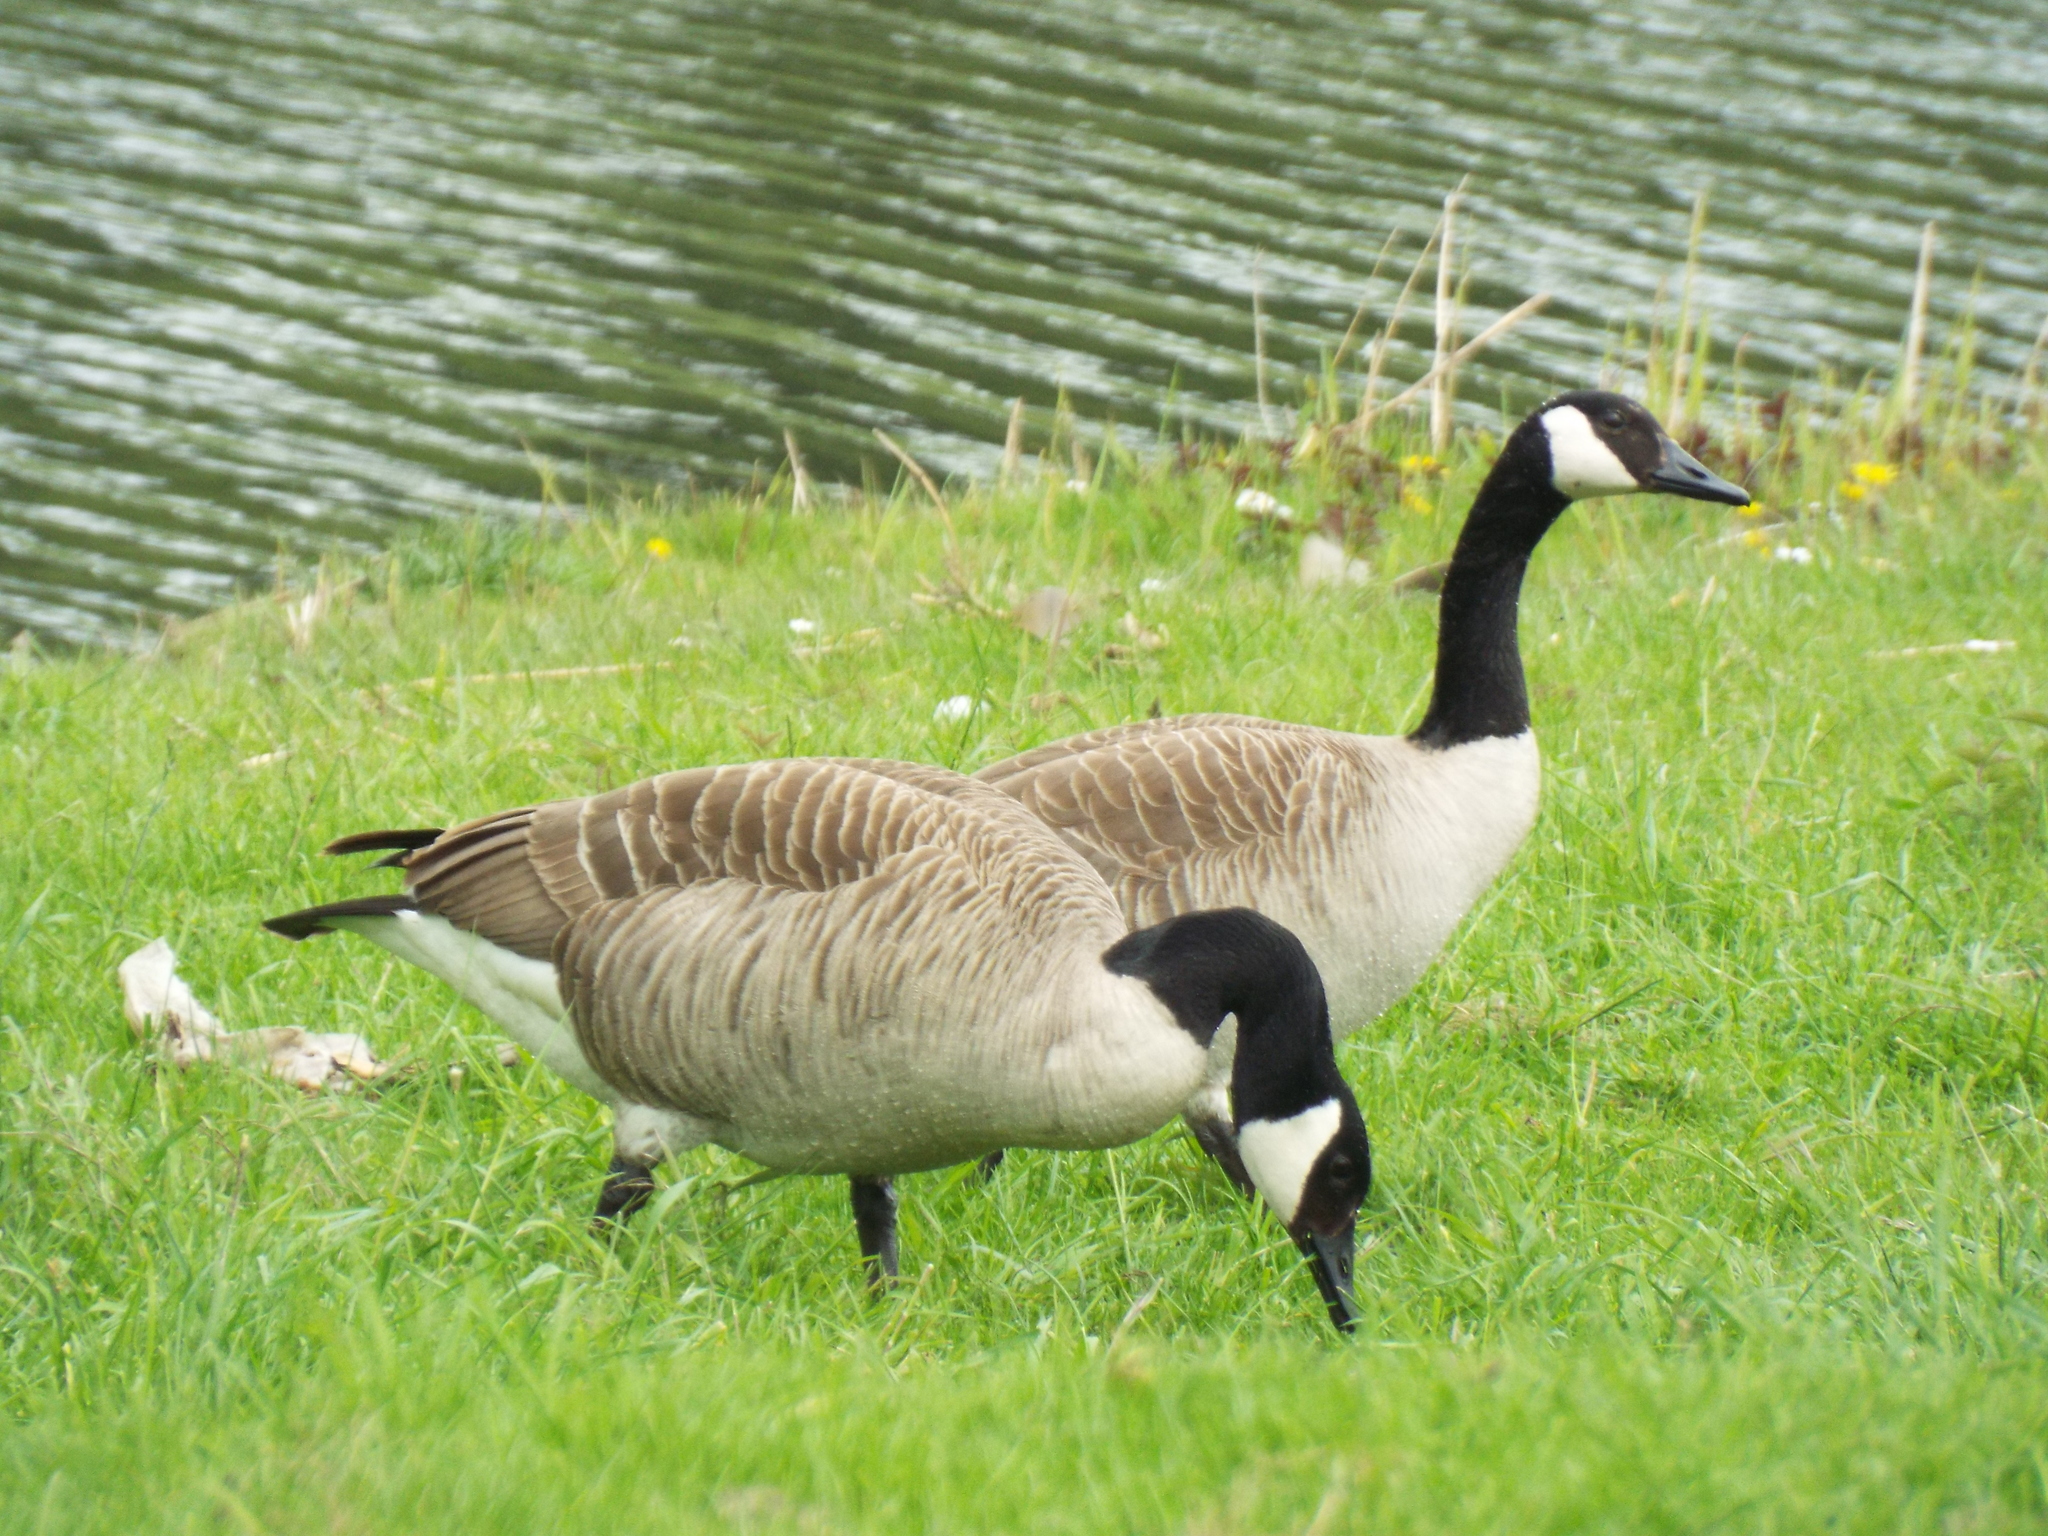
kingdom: Animalia
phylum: Chordata
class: Aves
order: Anseriformes
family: Anatidae
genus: Branta
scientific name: Branta canadensis
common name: Canada goose
